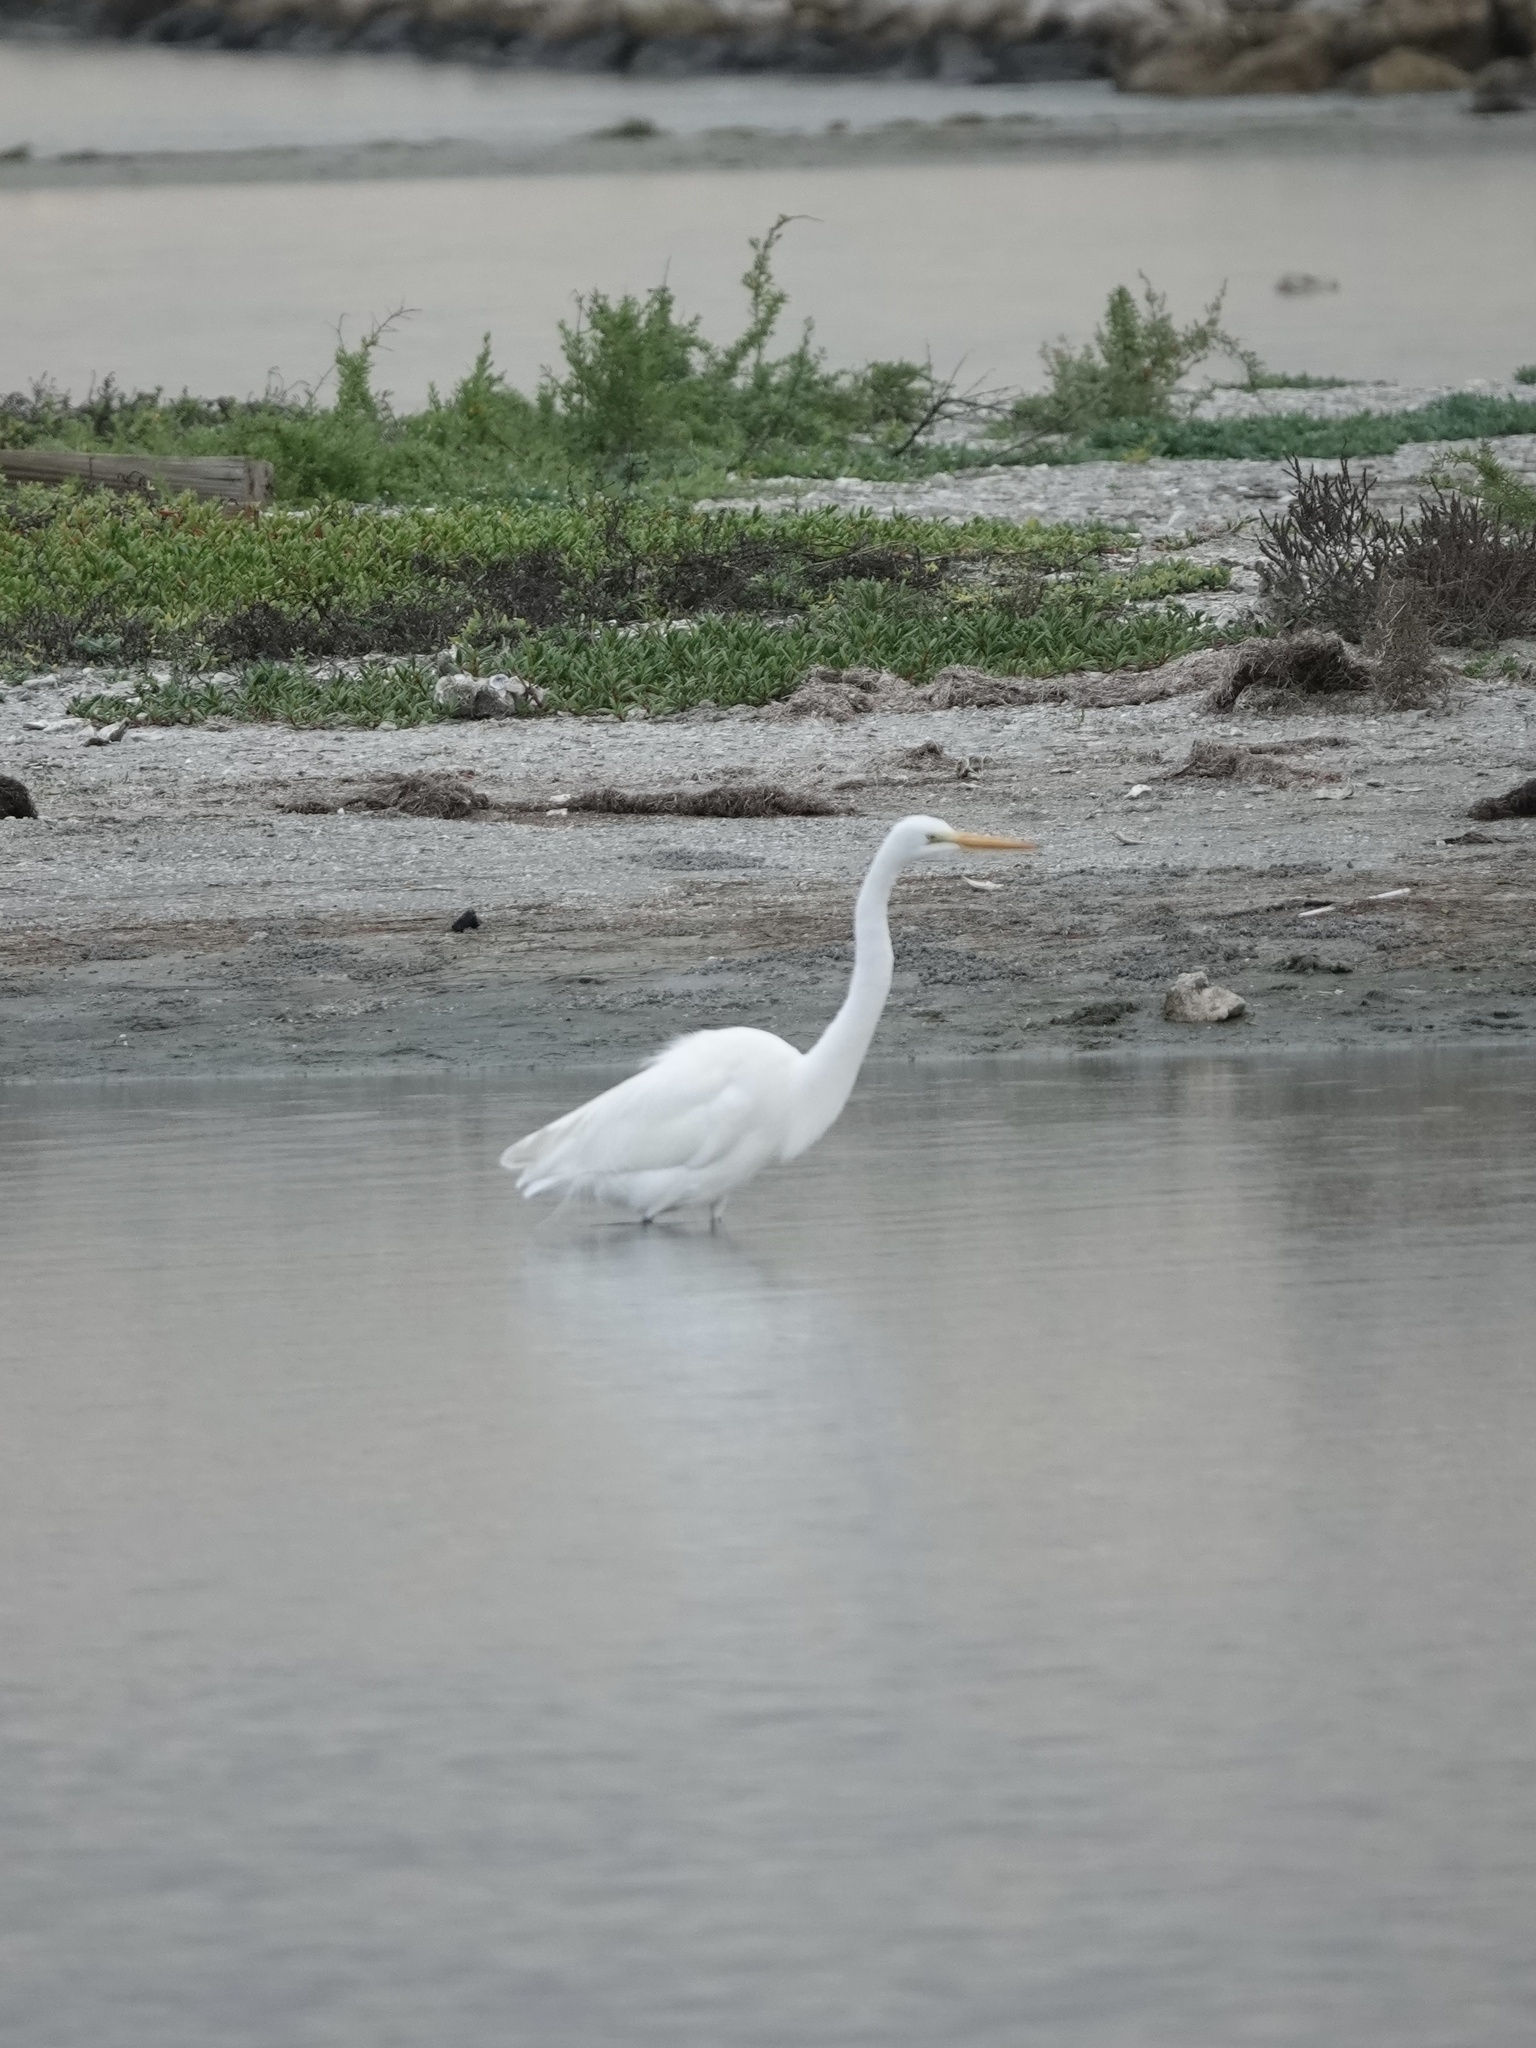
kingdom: Animalia
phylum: Chordata
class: Aves
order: Pelecaniformes
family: Ardeidae
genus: Ardea
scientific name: Ardea alba
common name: Great egret
